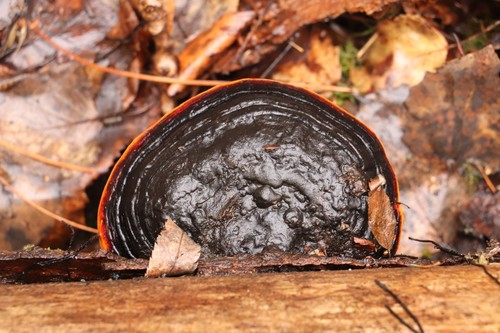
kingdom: Fungi
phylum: Basidiomycota
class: Agaricomycetes
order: Polyporales
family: Fomitopsidaceae
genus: Fomitopsis
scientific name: Fomitopsis pinicola
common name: Red-belted bracket
